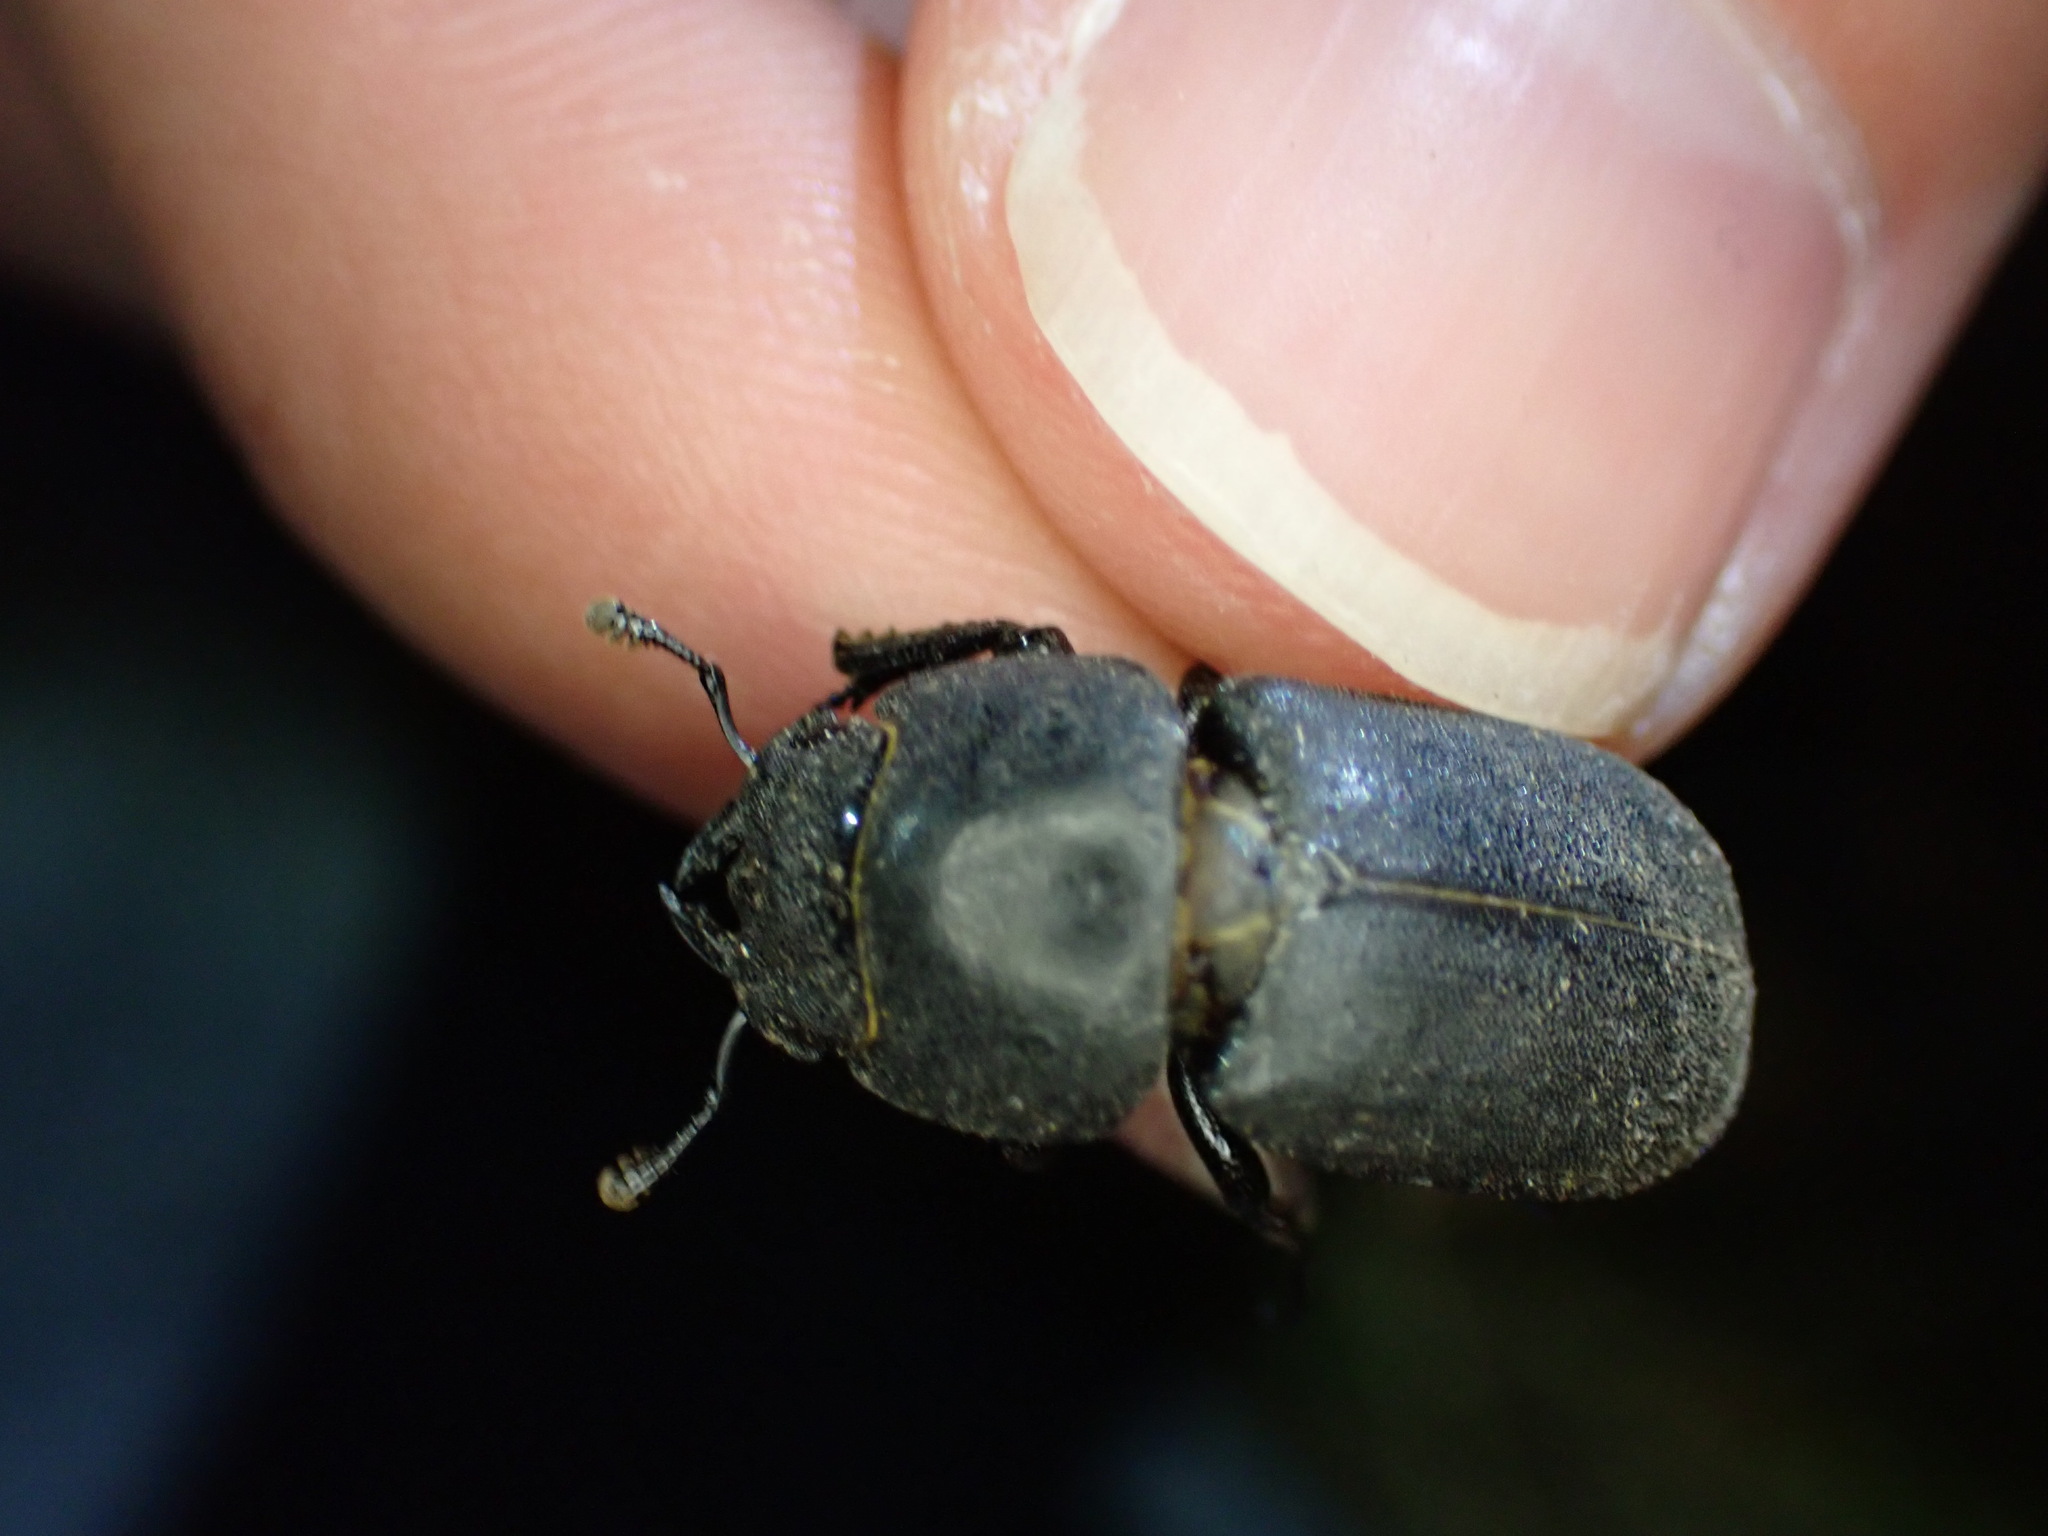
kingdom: Animalia
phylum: Arthropoda
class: Insecta
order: Coleoptera
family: Lucanidae
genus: Dorcus
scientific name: Dorcus parallelipipedus
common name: Lesser stag beetle
